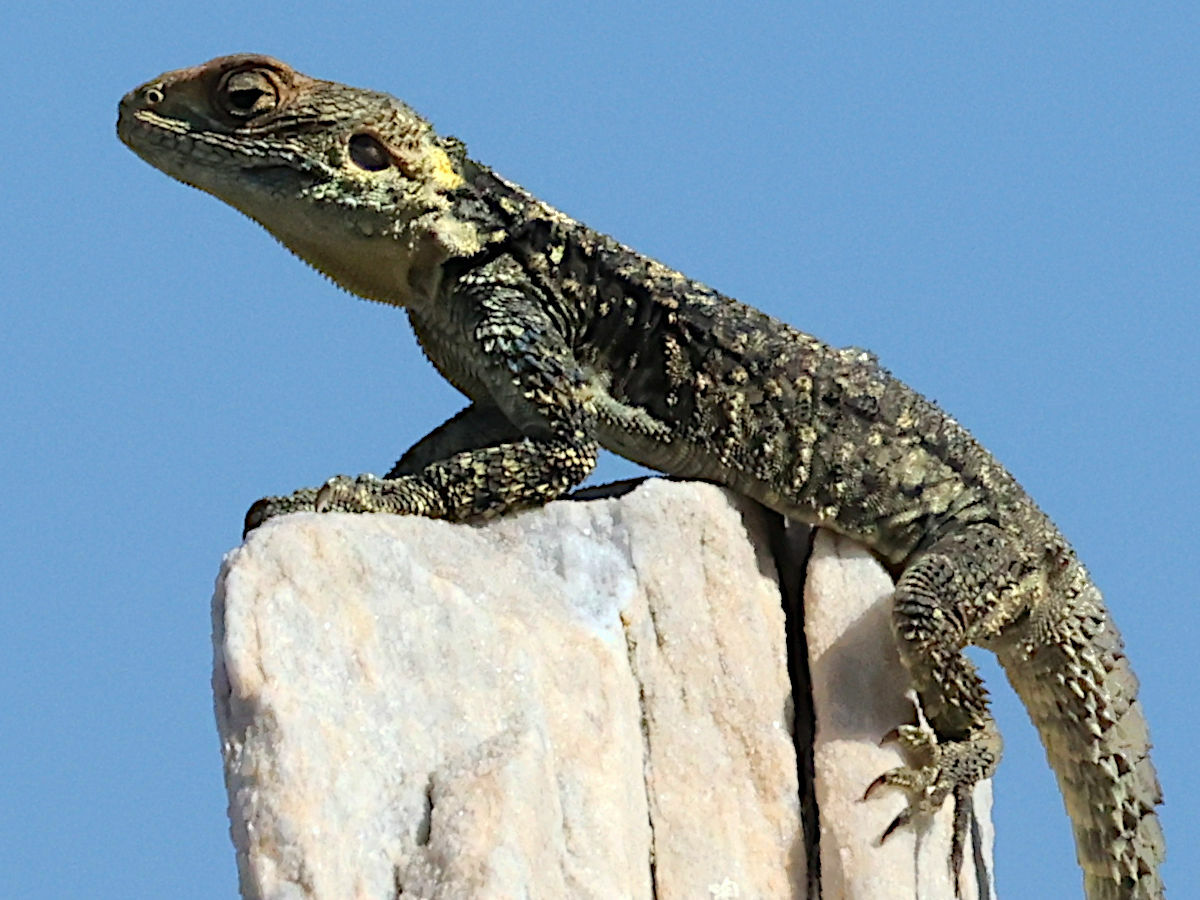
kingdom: Animalia
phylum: Chordata
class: Squamata
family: Agamidae
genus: Stellagama
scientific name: Stellagama stellio
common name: Starred agama
